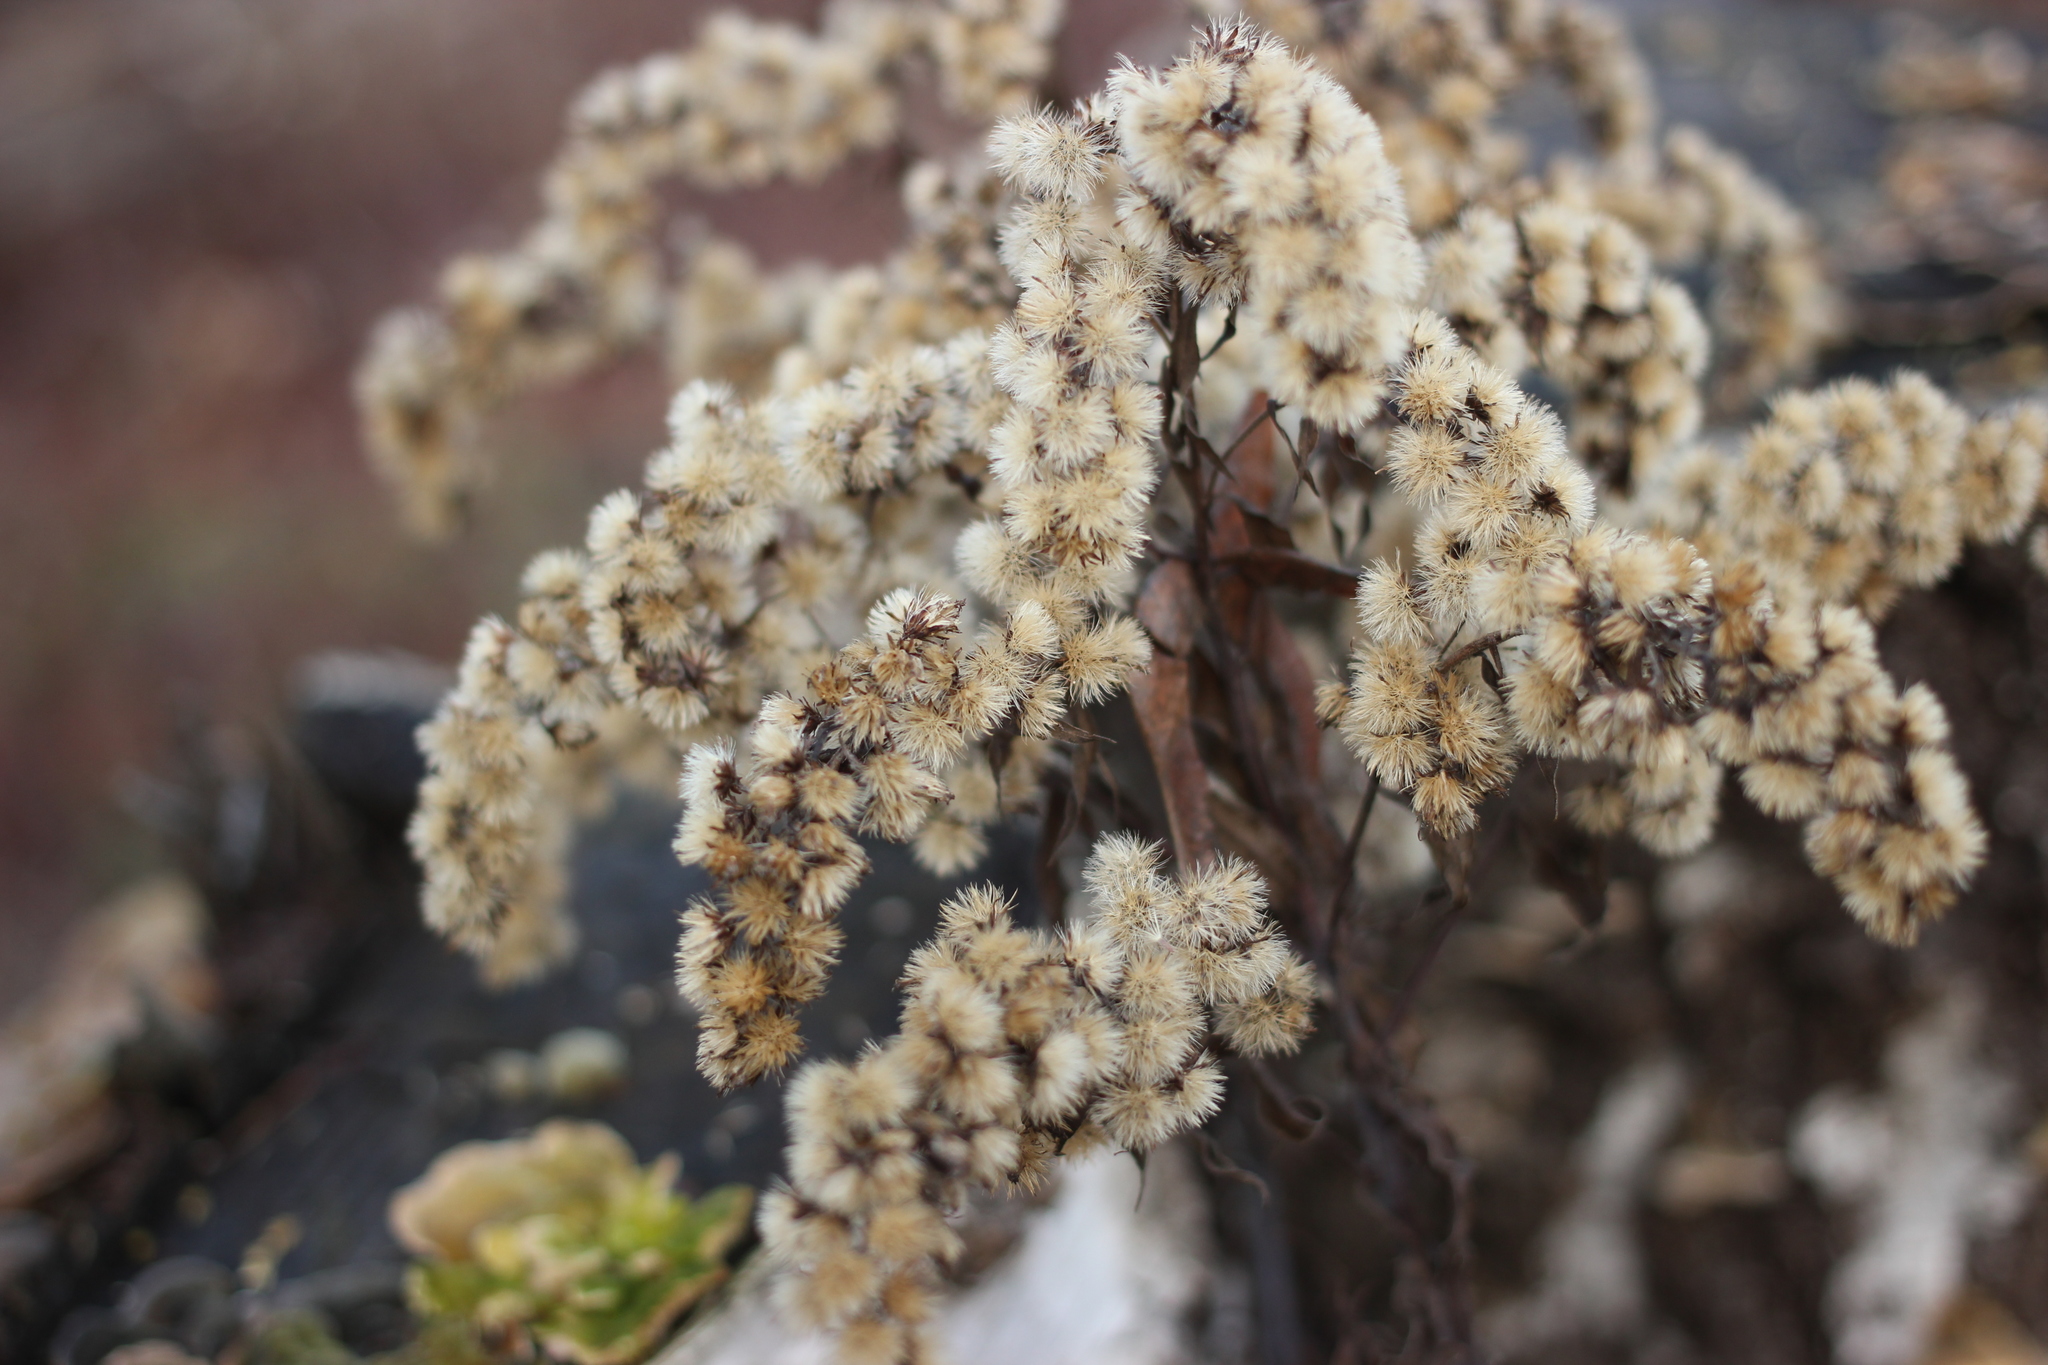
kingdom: Plantae
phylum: Tracheophyta
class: Magnoliopsida
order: Asterales
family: Asteraceae
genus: Solidago
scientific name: Solidago gigantea
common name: Giant goldenrod
